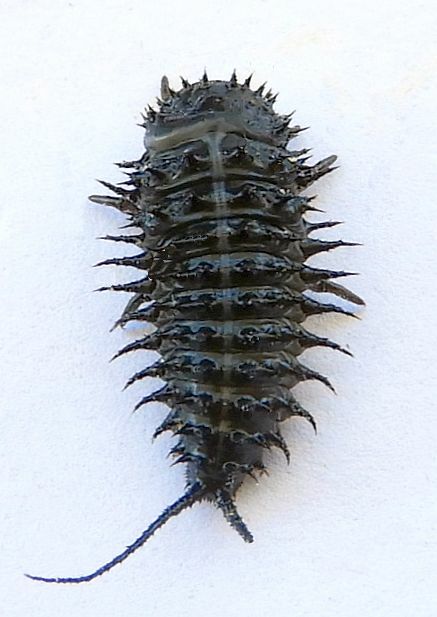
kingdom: Animalia
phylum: Arthropoda
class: Insecta
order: Coleoptera
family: Erotylidae
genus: Gibbifer
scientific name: Gibbifer californicus
